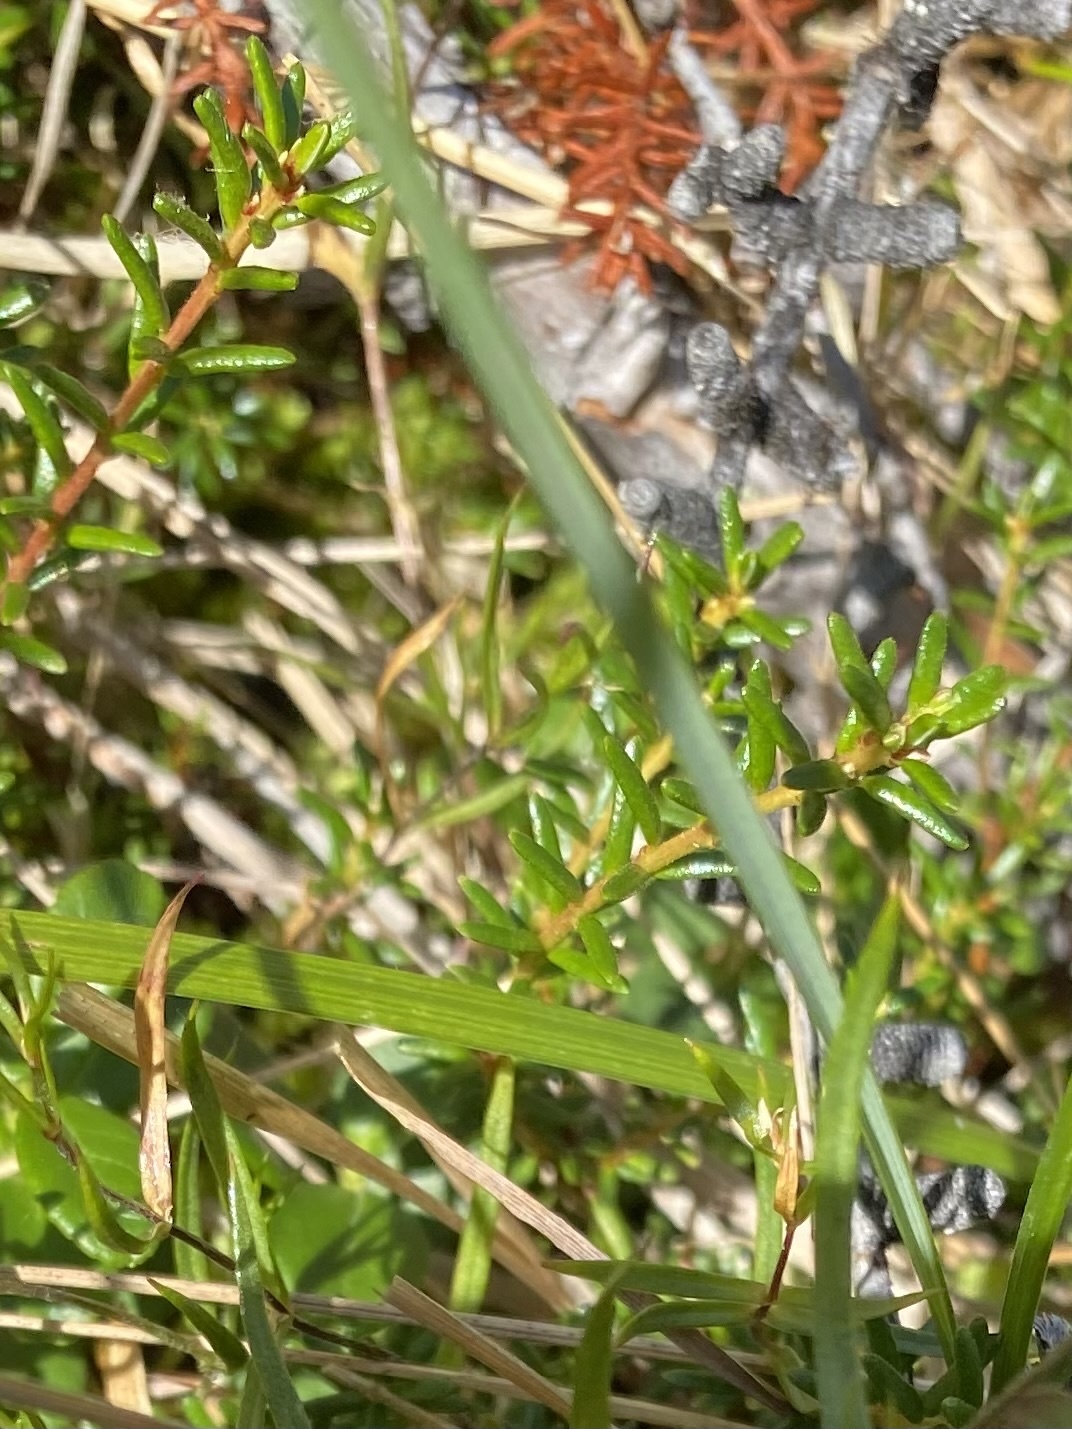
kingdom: Plantae
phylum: Tracheophyta
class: Magnoliopsida
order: Ericales
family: Ericaceae
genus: Empetrum
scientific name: Empetrum nigrum
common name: Black crowberry
